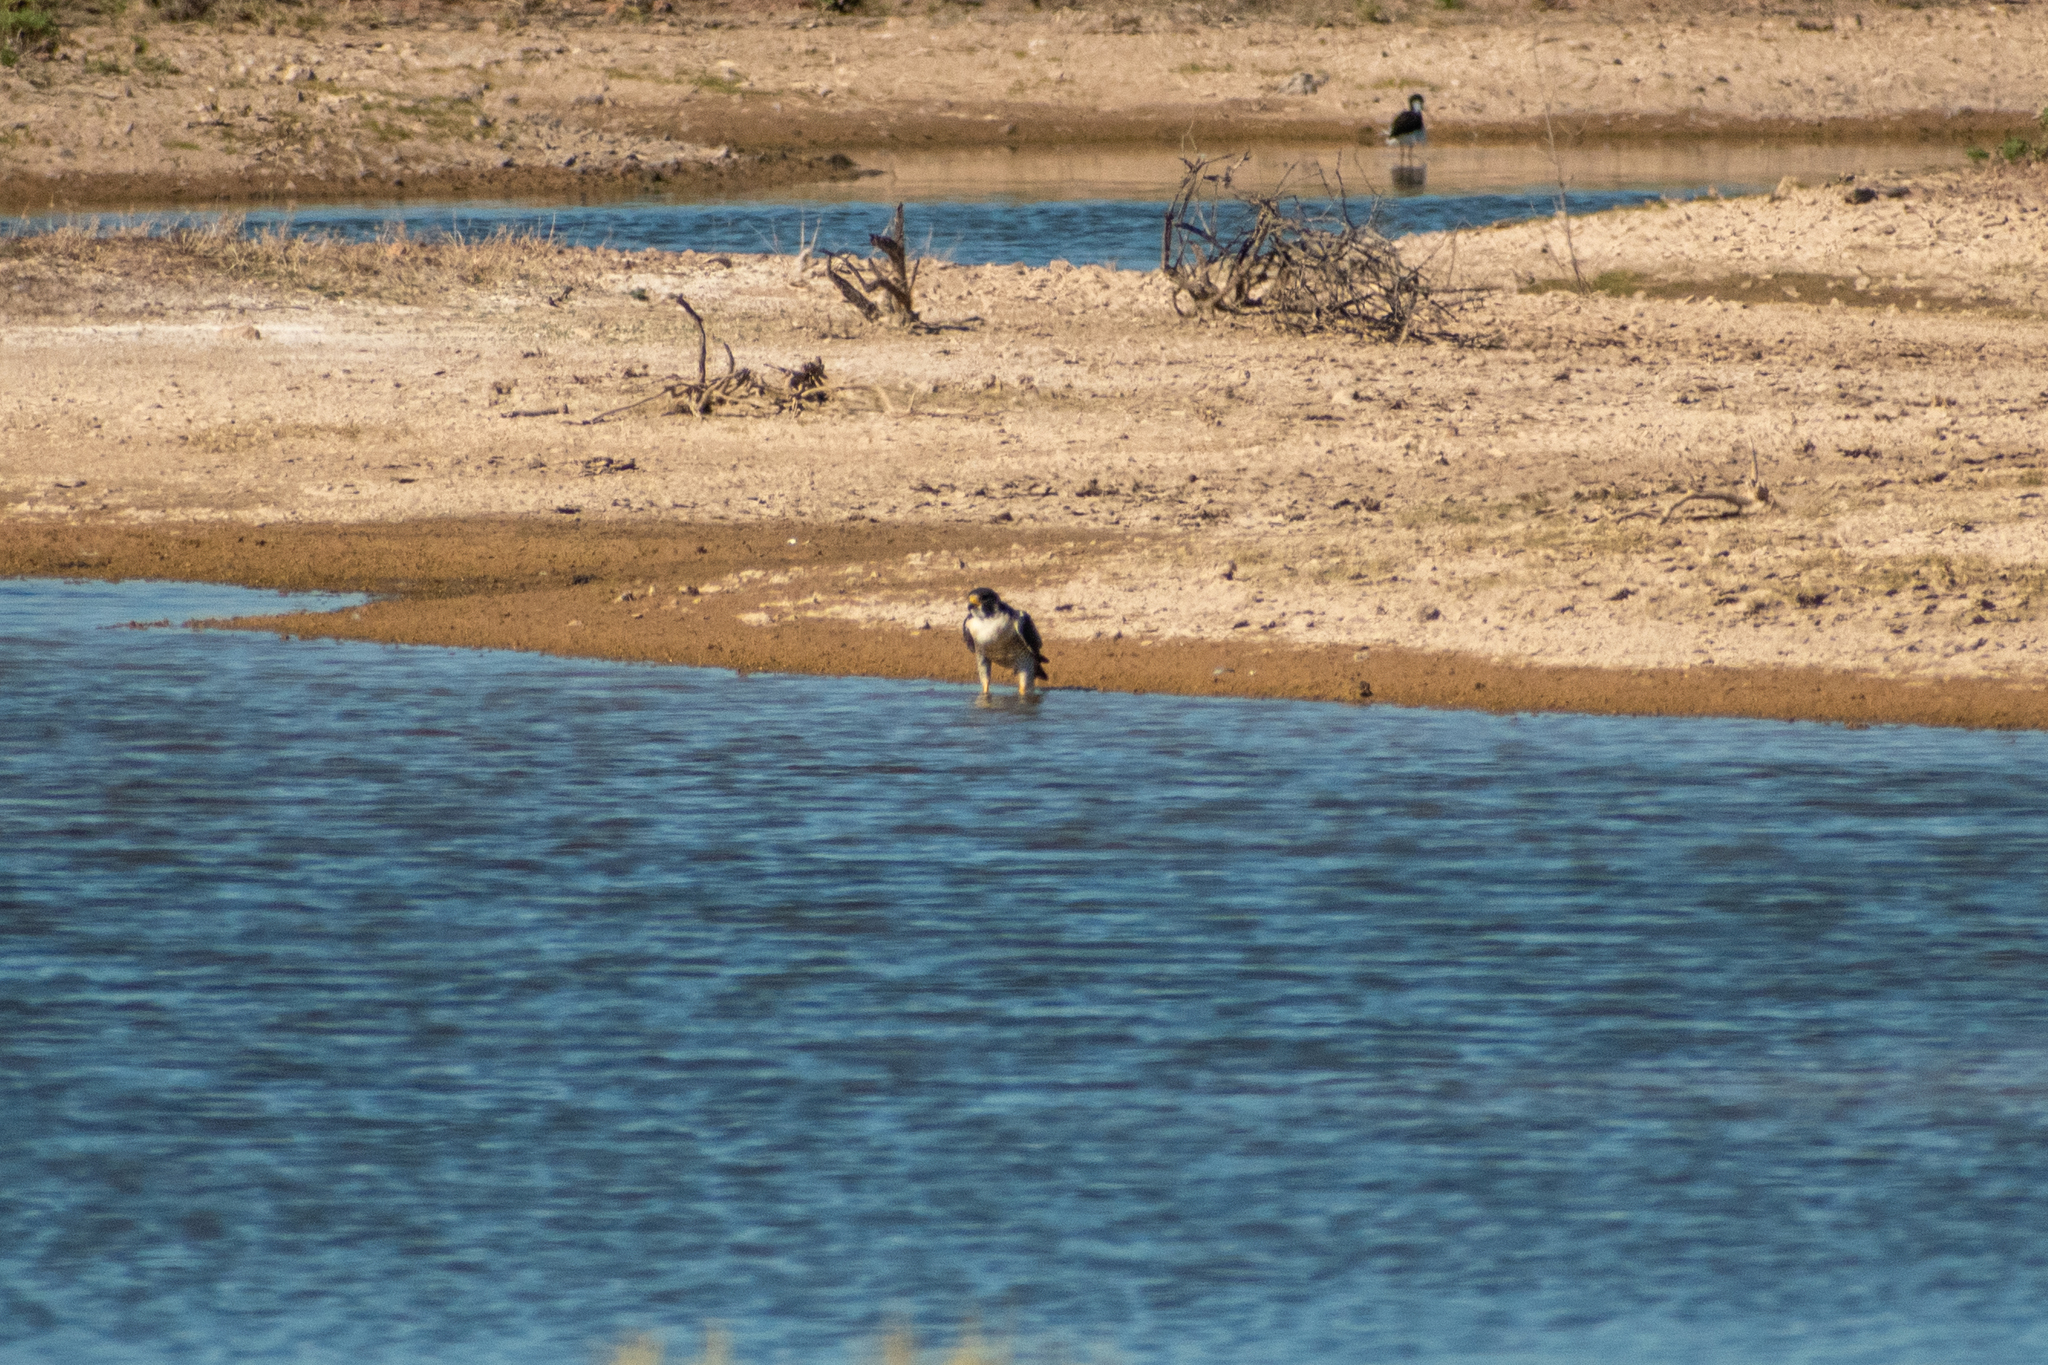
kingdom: Animalia
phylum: Chordata
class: Aves
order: Falconiformes
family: Falconidae
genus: Falco
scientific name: Falco peregrinus
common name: Peregrine falcon
